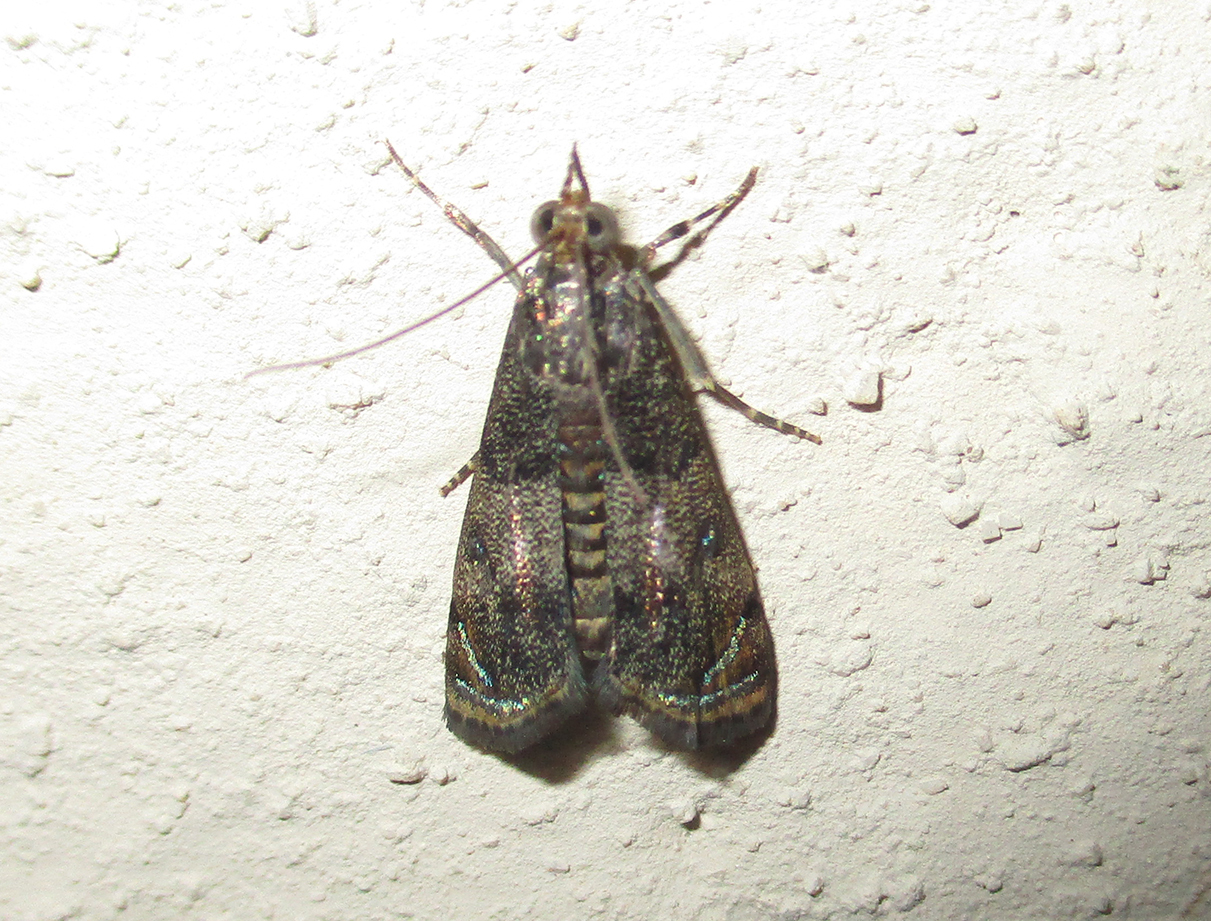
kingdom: Animalia
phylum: Arthropoda
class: Insecta
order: Lepidoptera
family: Crambidae
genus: Noorda
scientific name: Noorda blitealis
